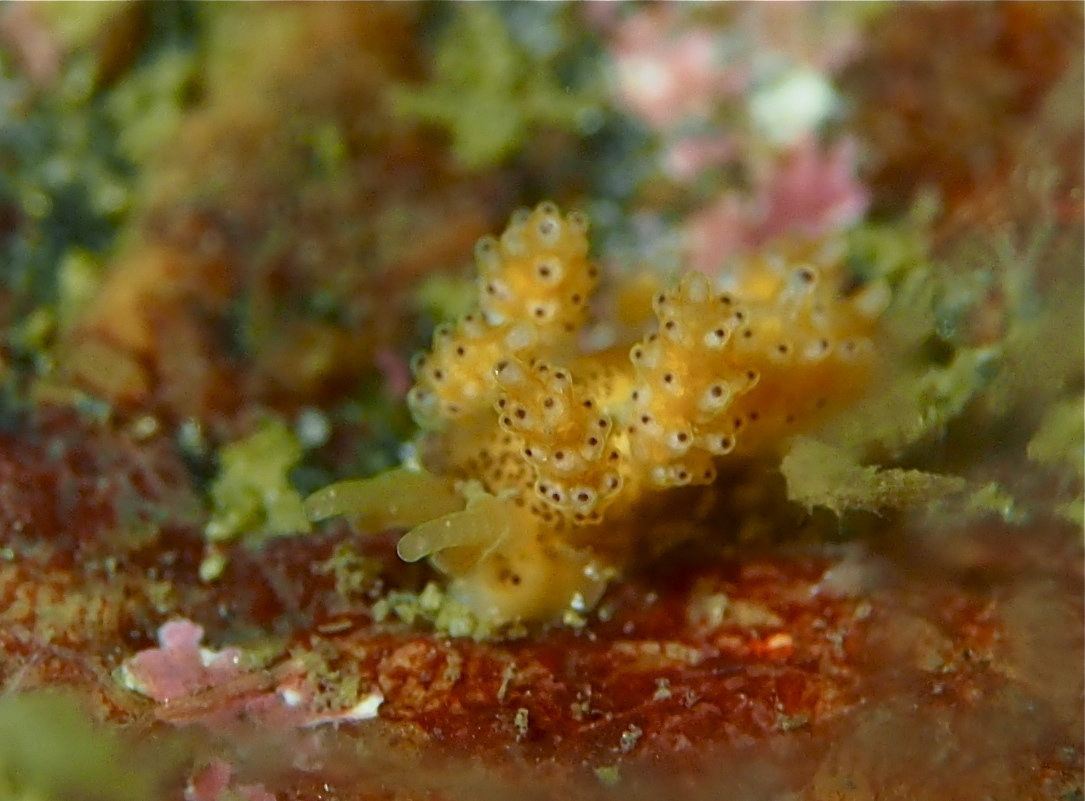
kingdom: Animalia
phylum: Mollusca
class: Gastropoda
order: Nudibranchia
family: Dotidae
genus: Doto
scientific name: Doto dunnei
